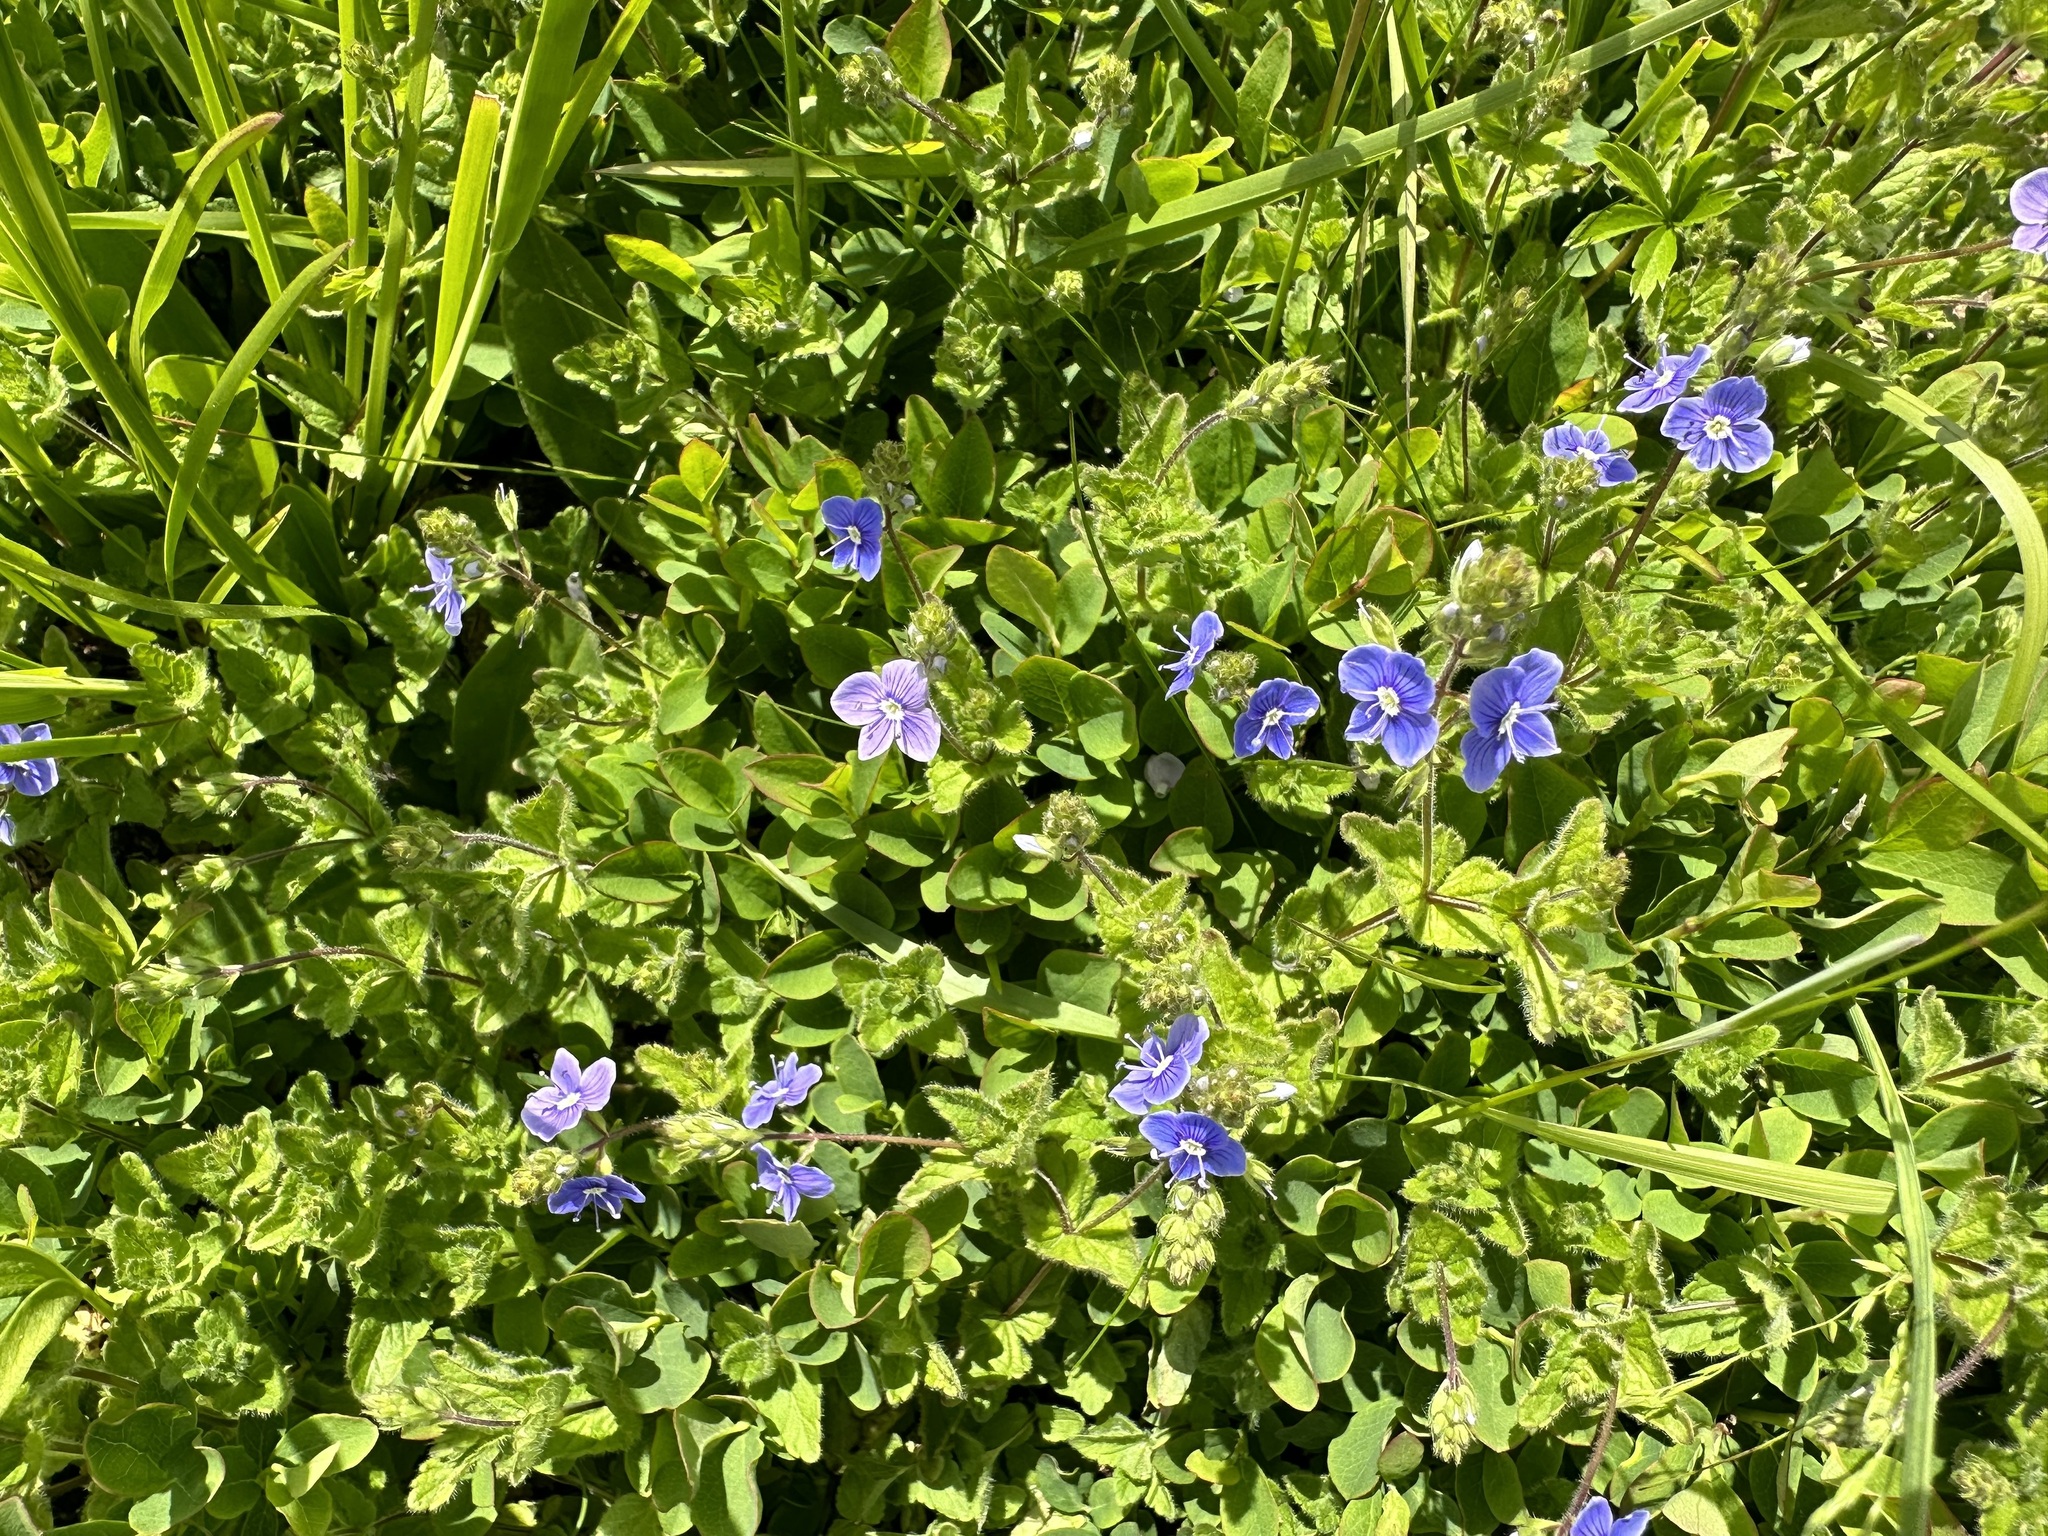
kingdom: Plantae
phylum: Tracheophyta
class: Magnoliopsida
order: Lamiales
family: Plantaginaceae
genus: Veronica
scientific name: Veronica chamaedrys
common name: Germander speedwell
